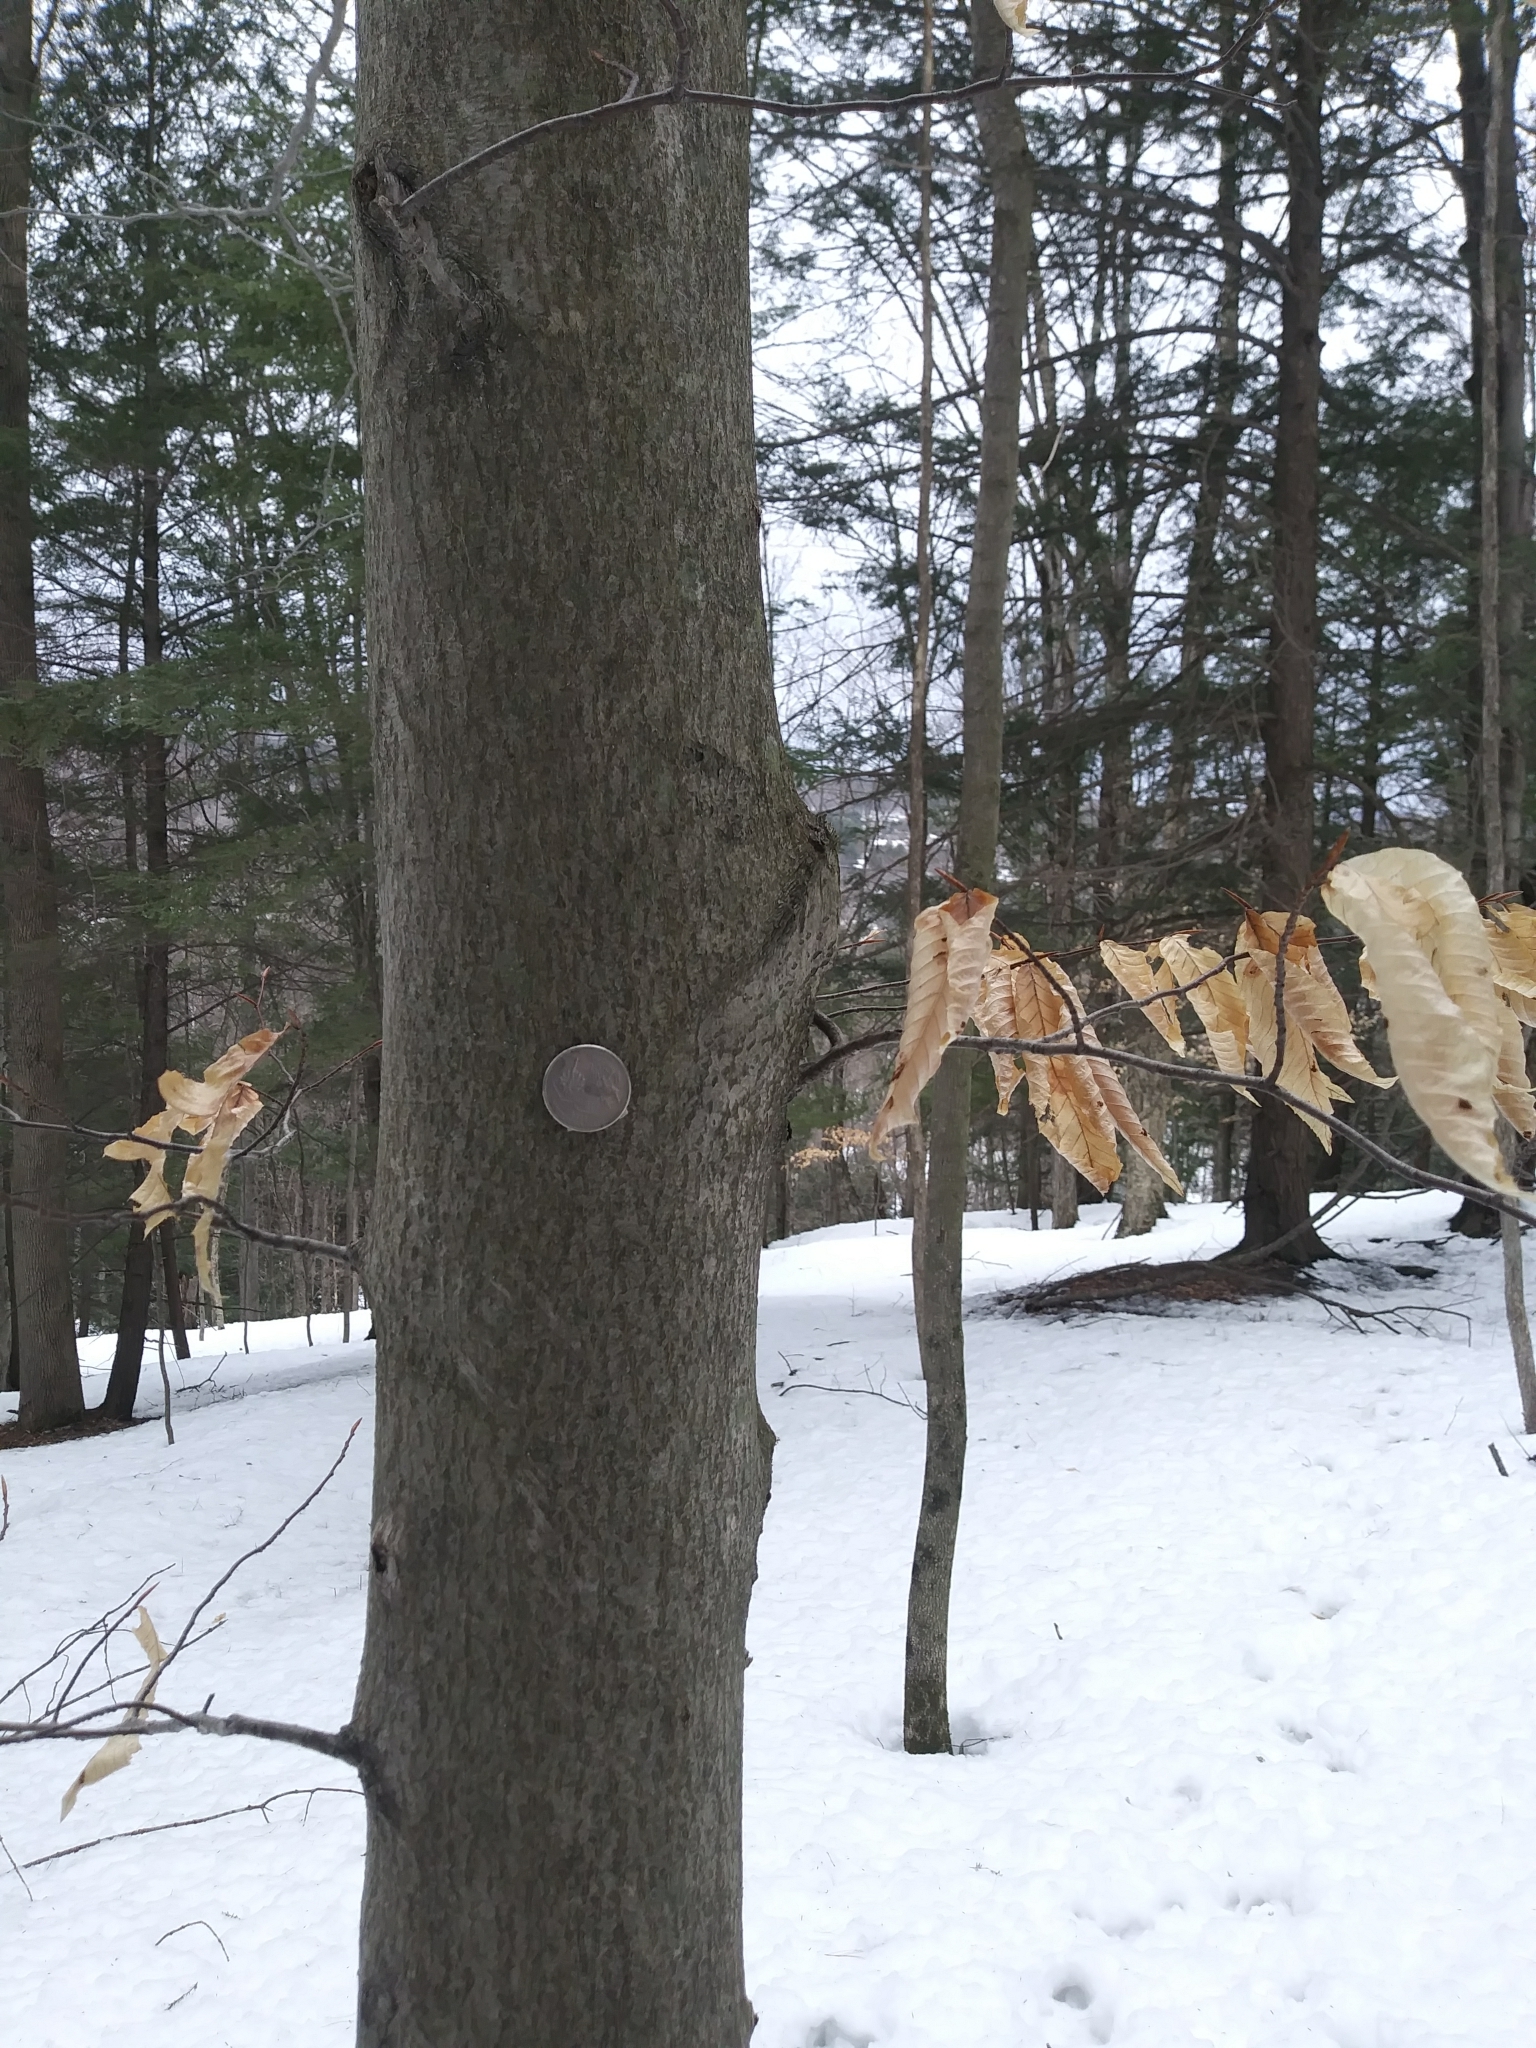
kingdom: Plantae
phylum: Tracheophyta
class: Magnoliopsida
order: Fagales
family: Fagaceae
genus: Fagus
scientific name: Fagus grandifolia
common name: American beech
